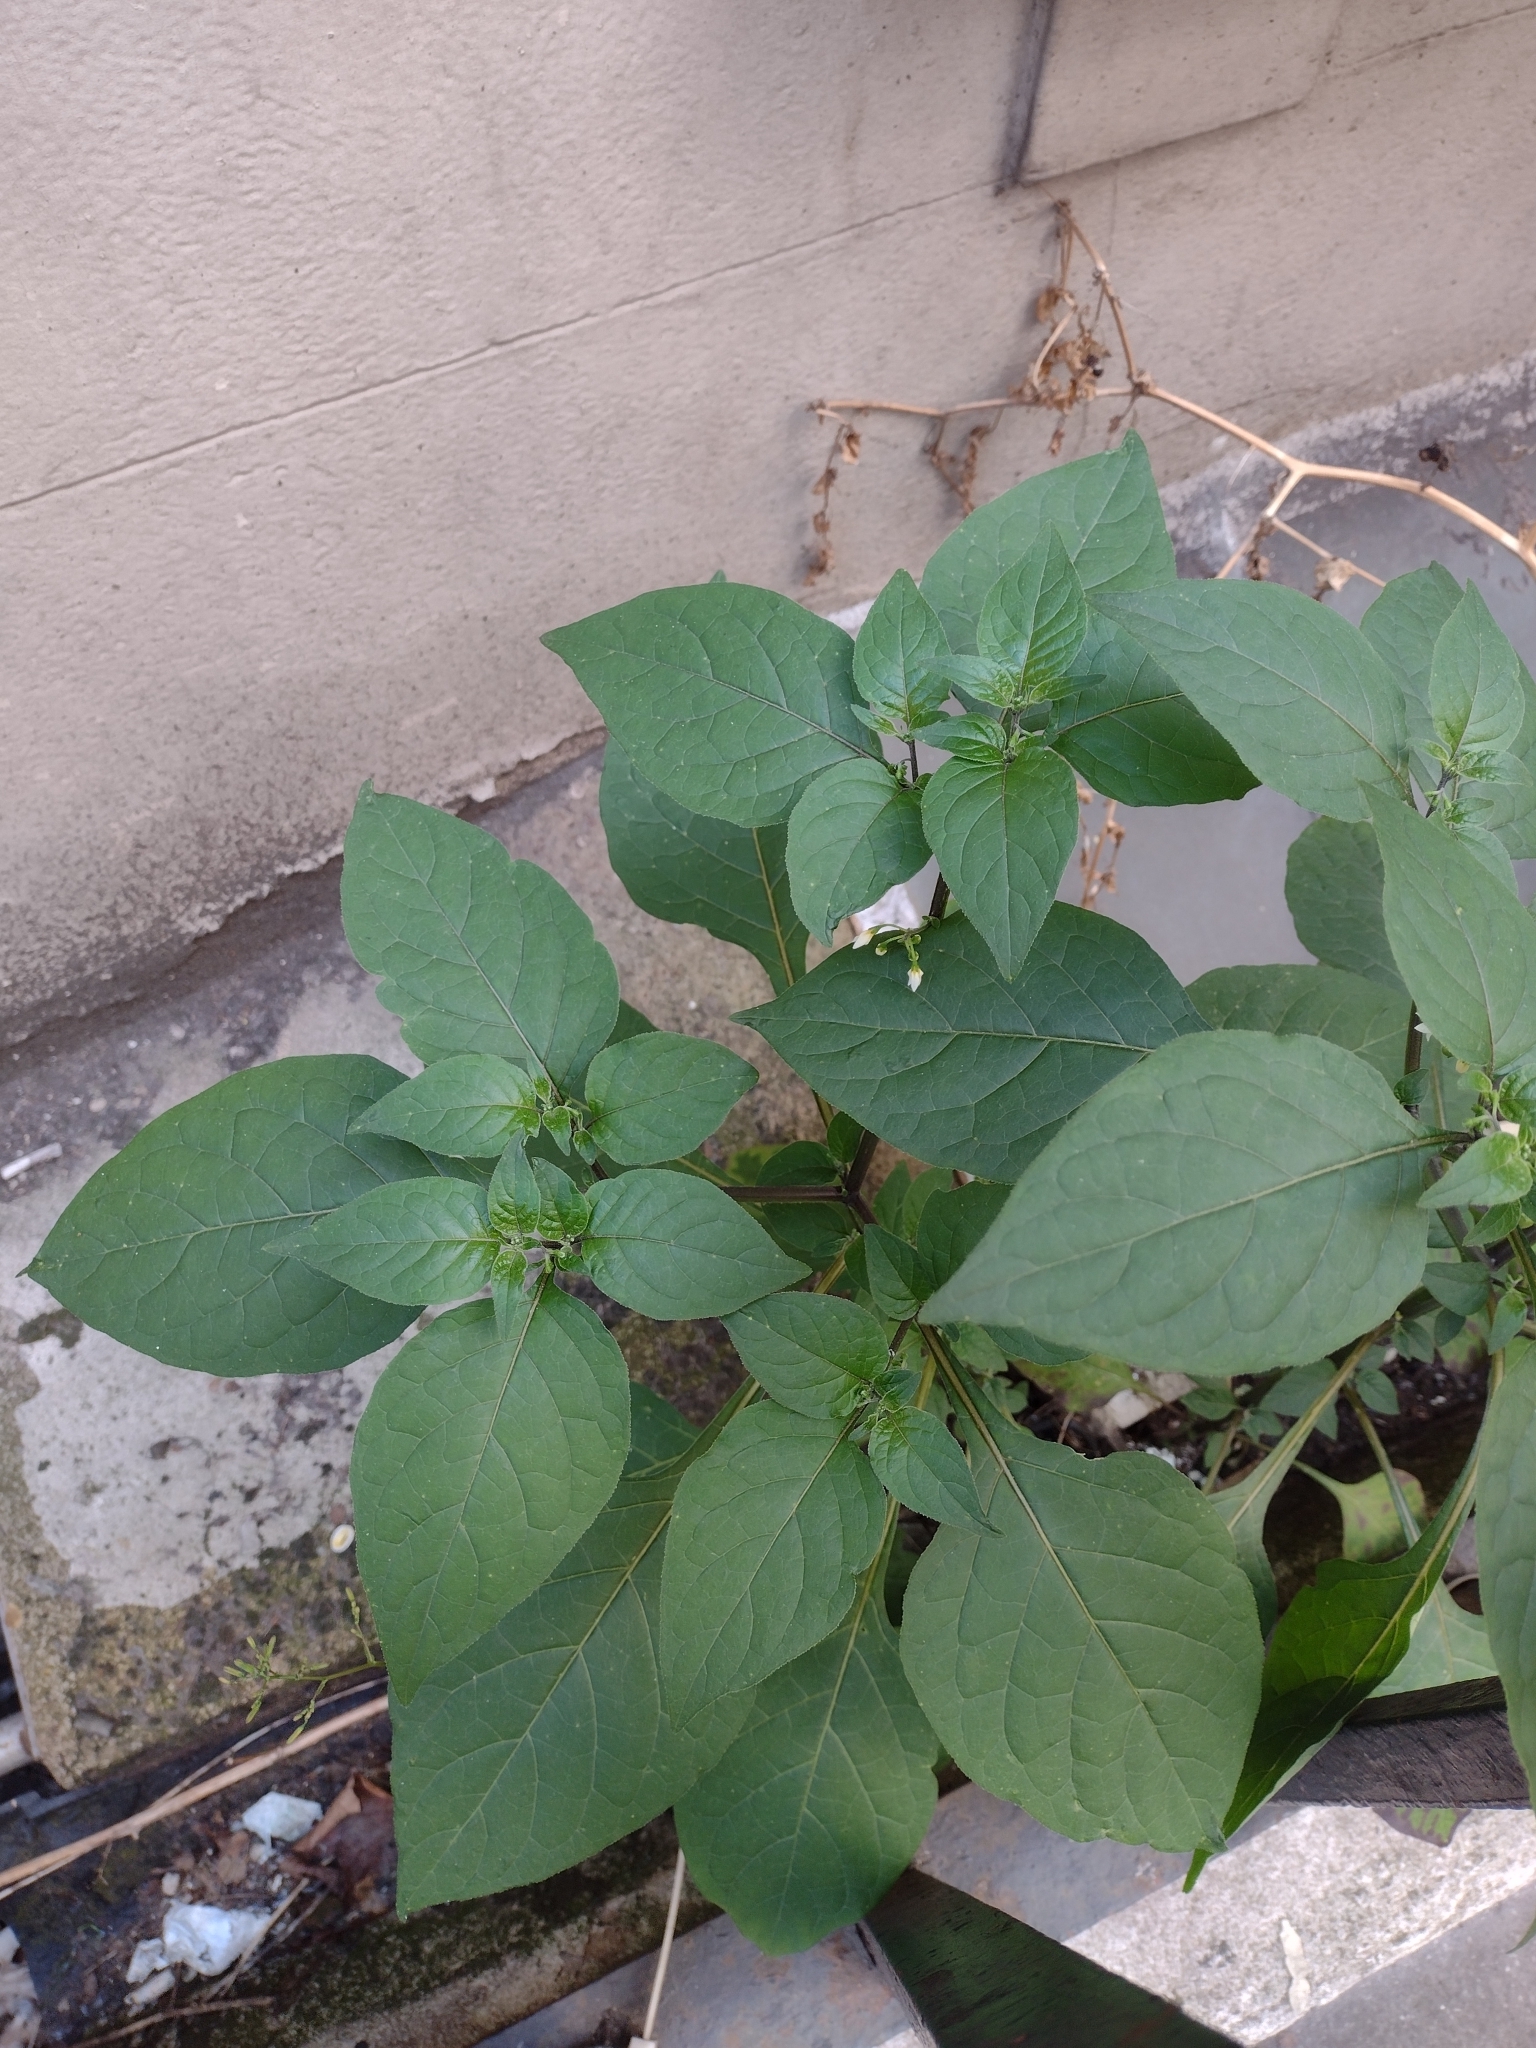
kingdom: Plantae
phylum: Tracheophyta
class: Magnoliopsida
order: Solanales
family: Solanaceae
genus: Solanum
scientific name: Solanum nigrum
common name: Black nightshade
